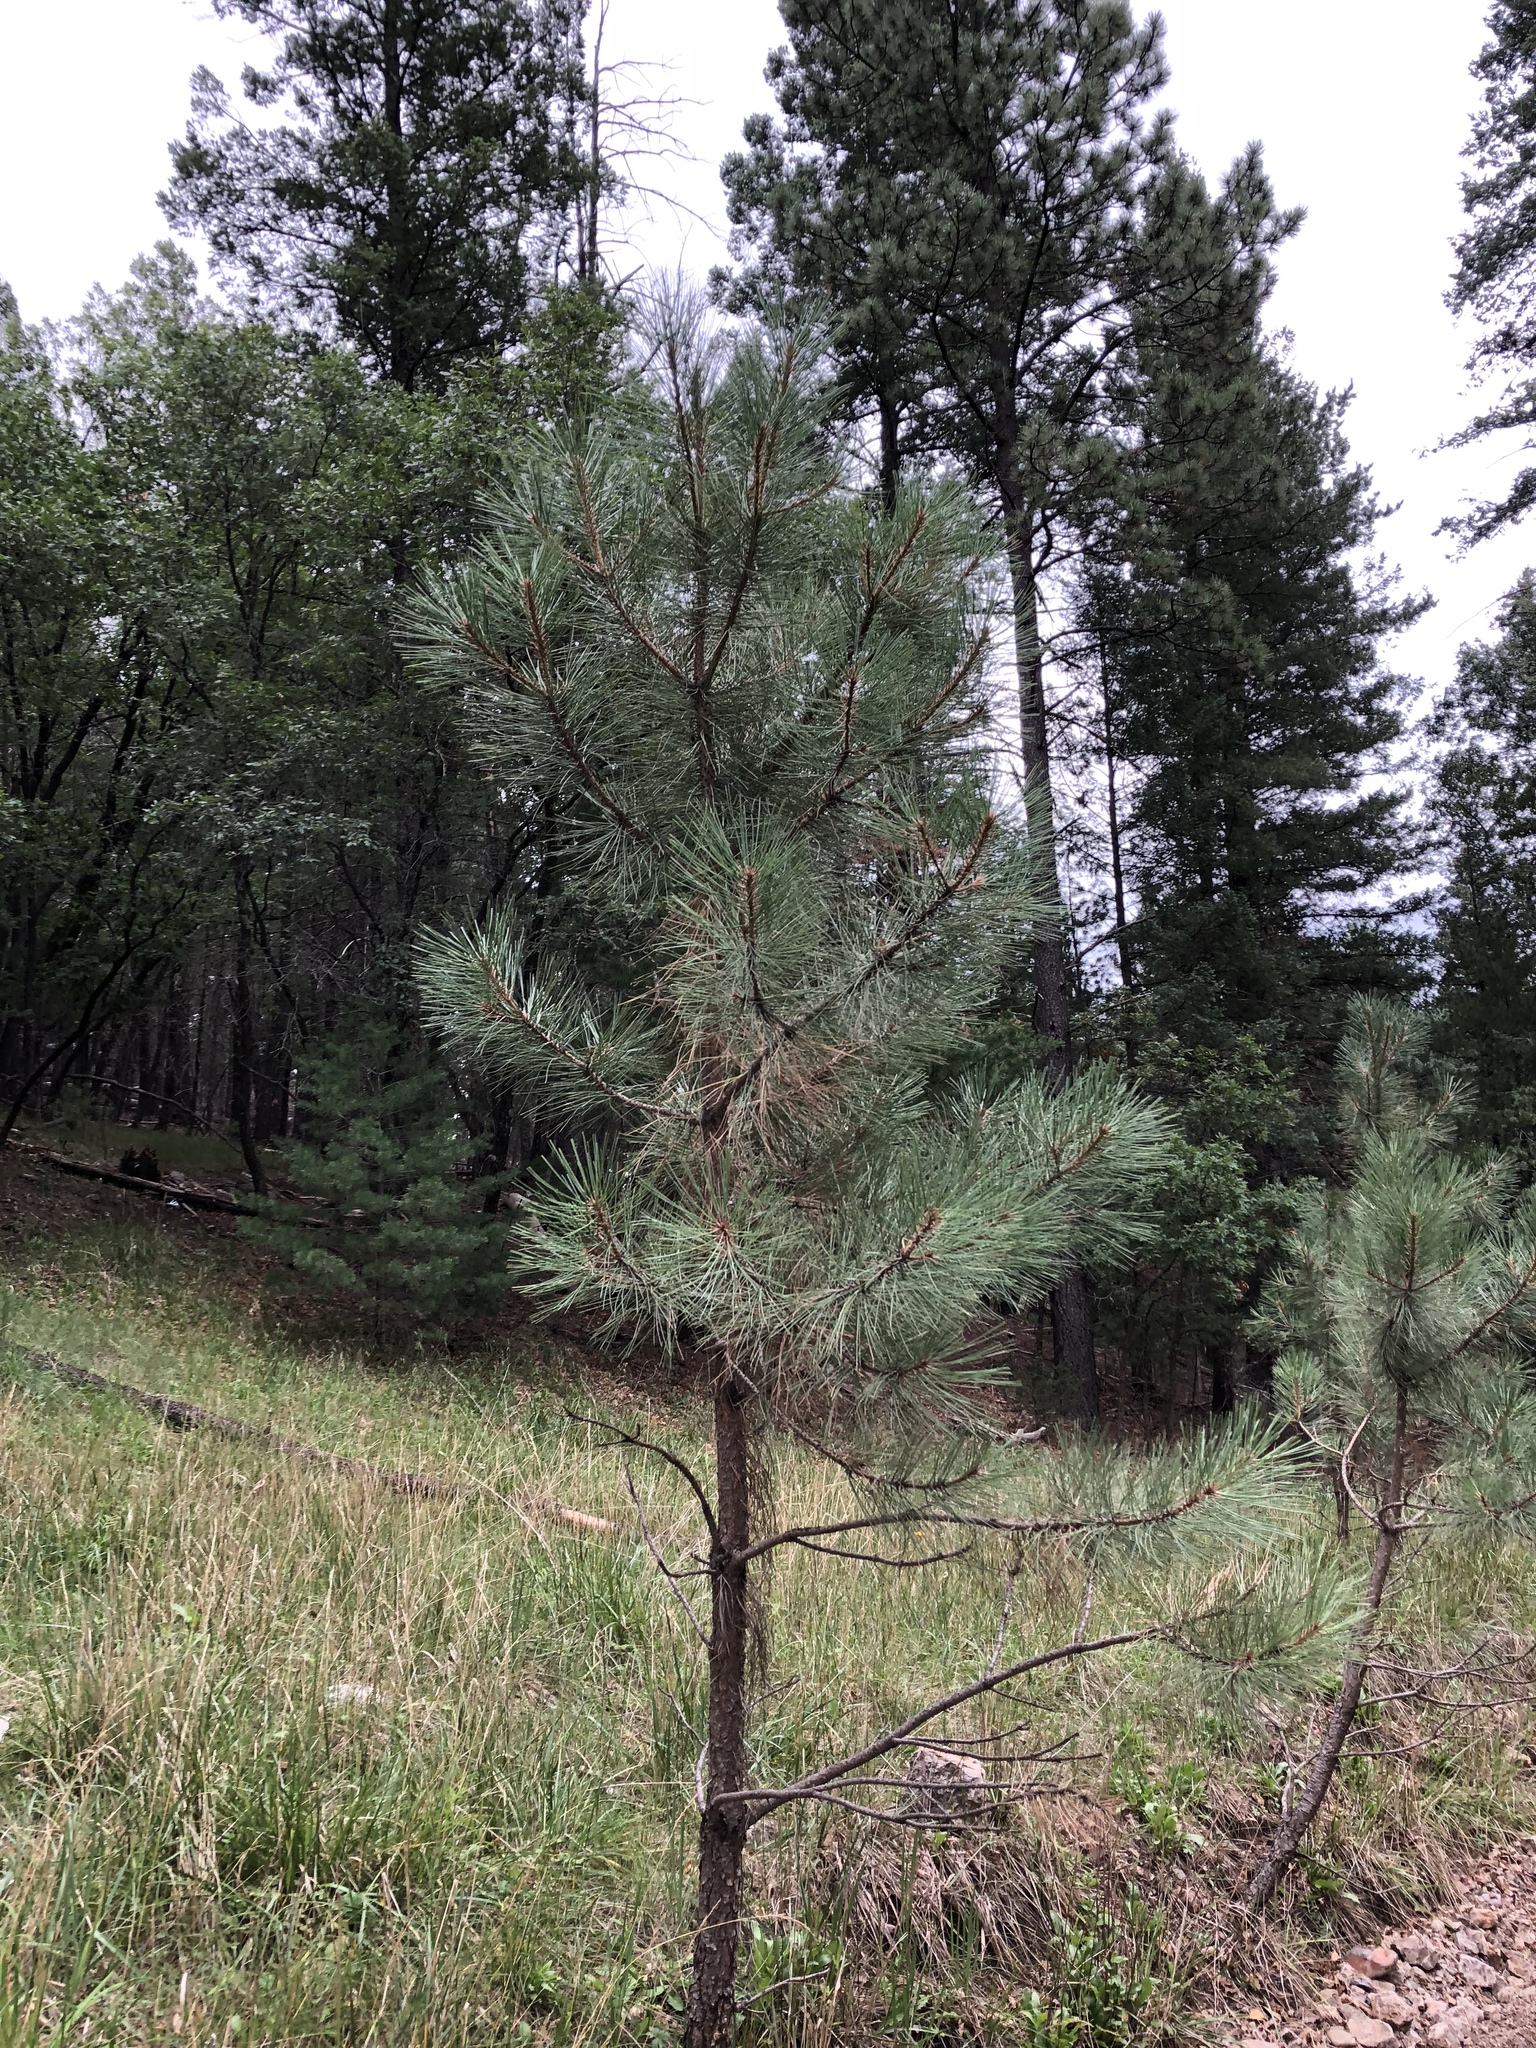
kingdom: Plantae
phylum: Tracheophyta
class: Pinopsida
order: Pinales
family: Pinaceae
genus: Pinus
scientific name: Pinus ponderosa
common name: Western yellow-pine
